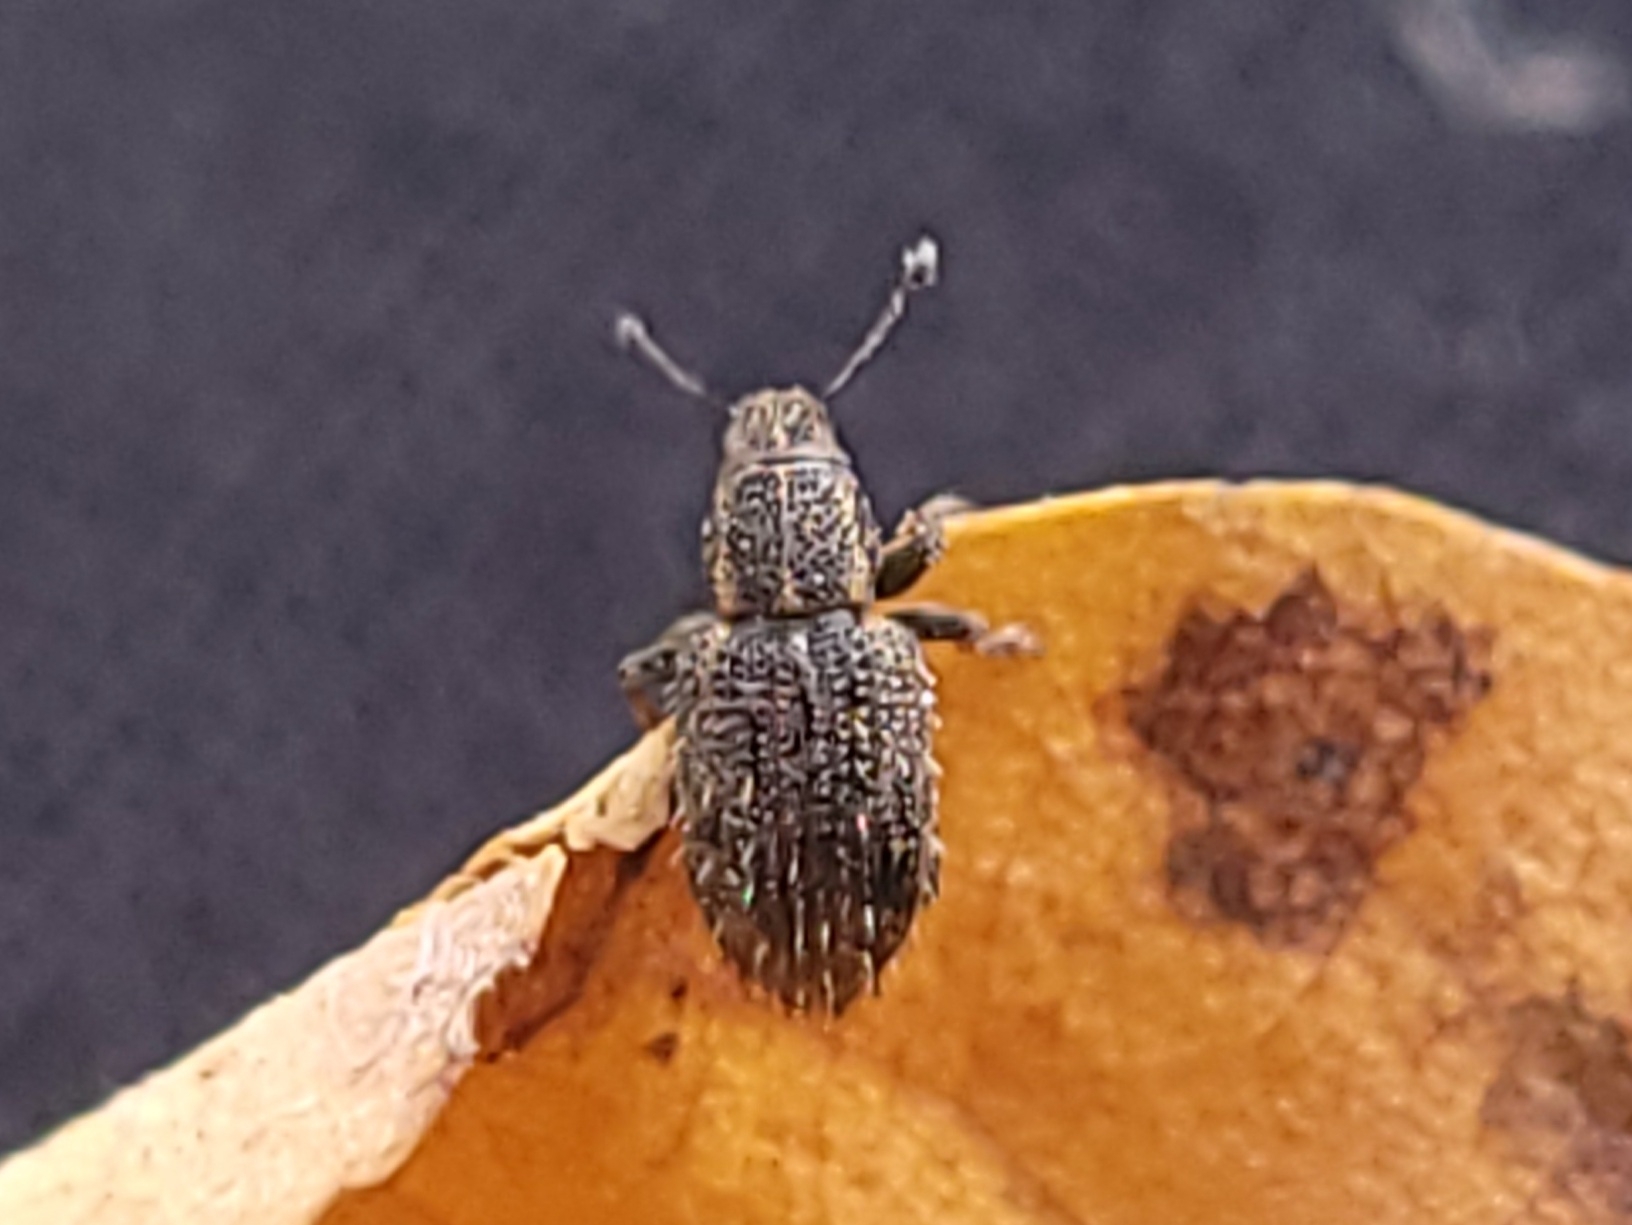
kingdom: Animalia
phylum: Arthropoda
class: Insecta
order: Coleoptera
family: Curculionidae
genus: Sitona
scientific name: Sitona hispidulus
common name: Clover weevil
